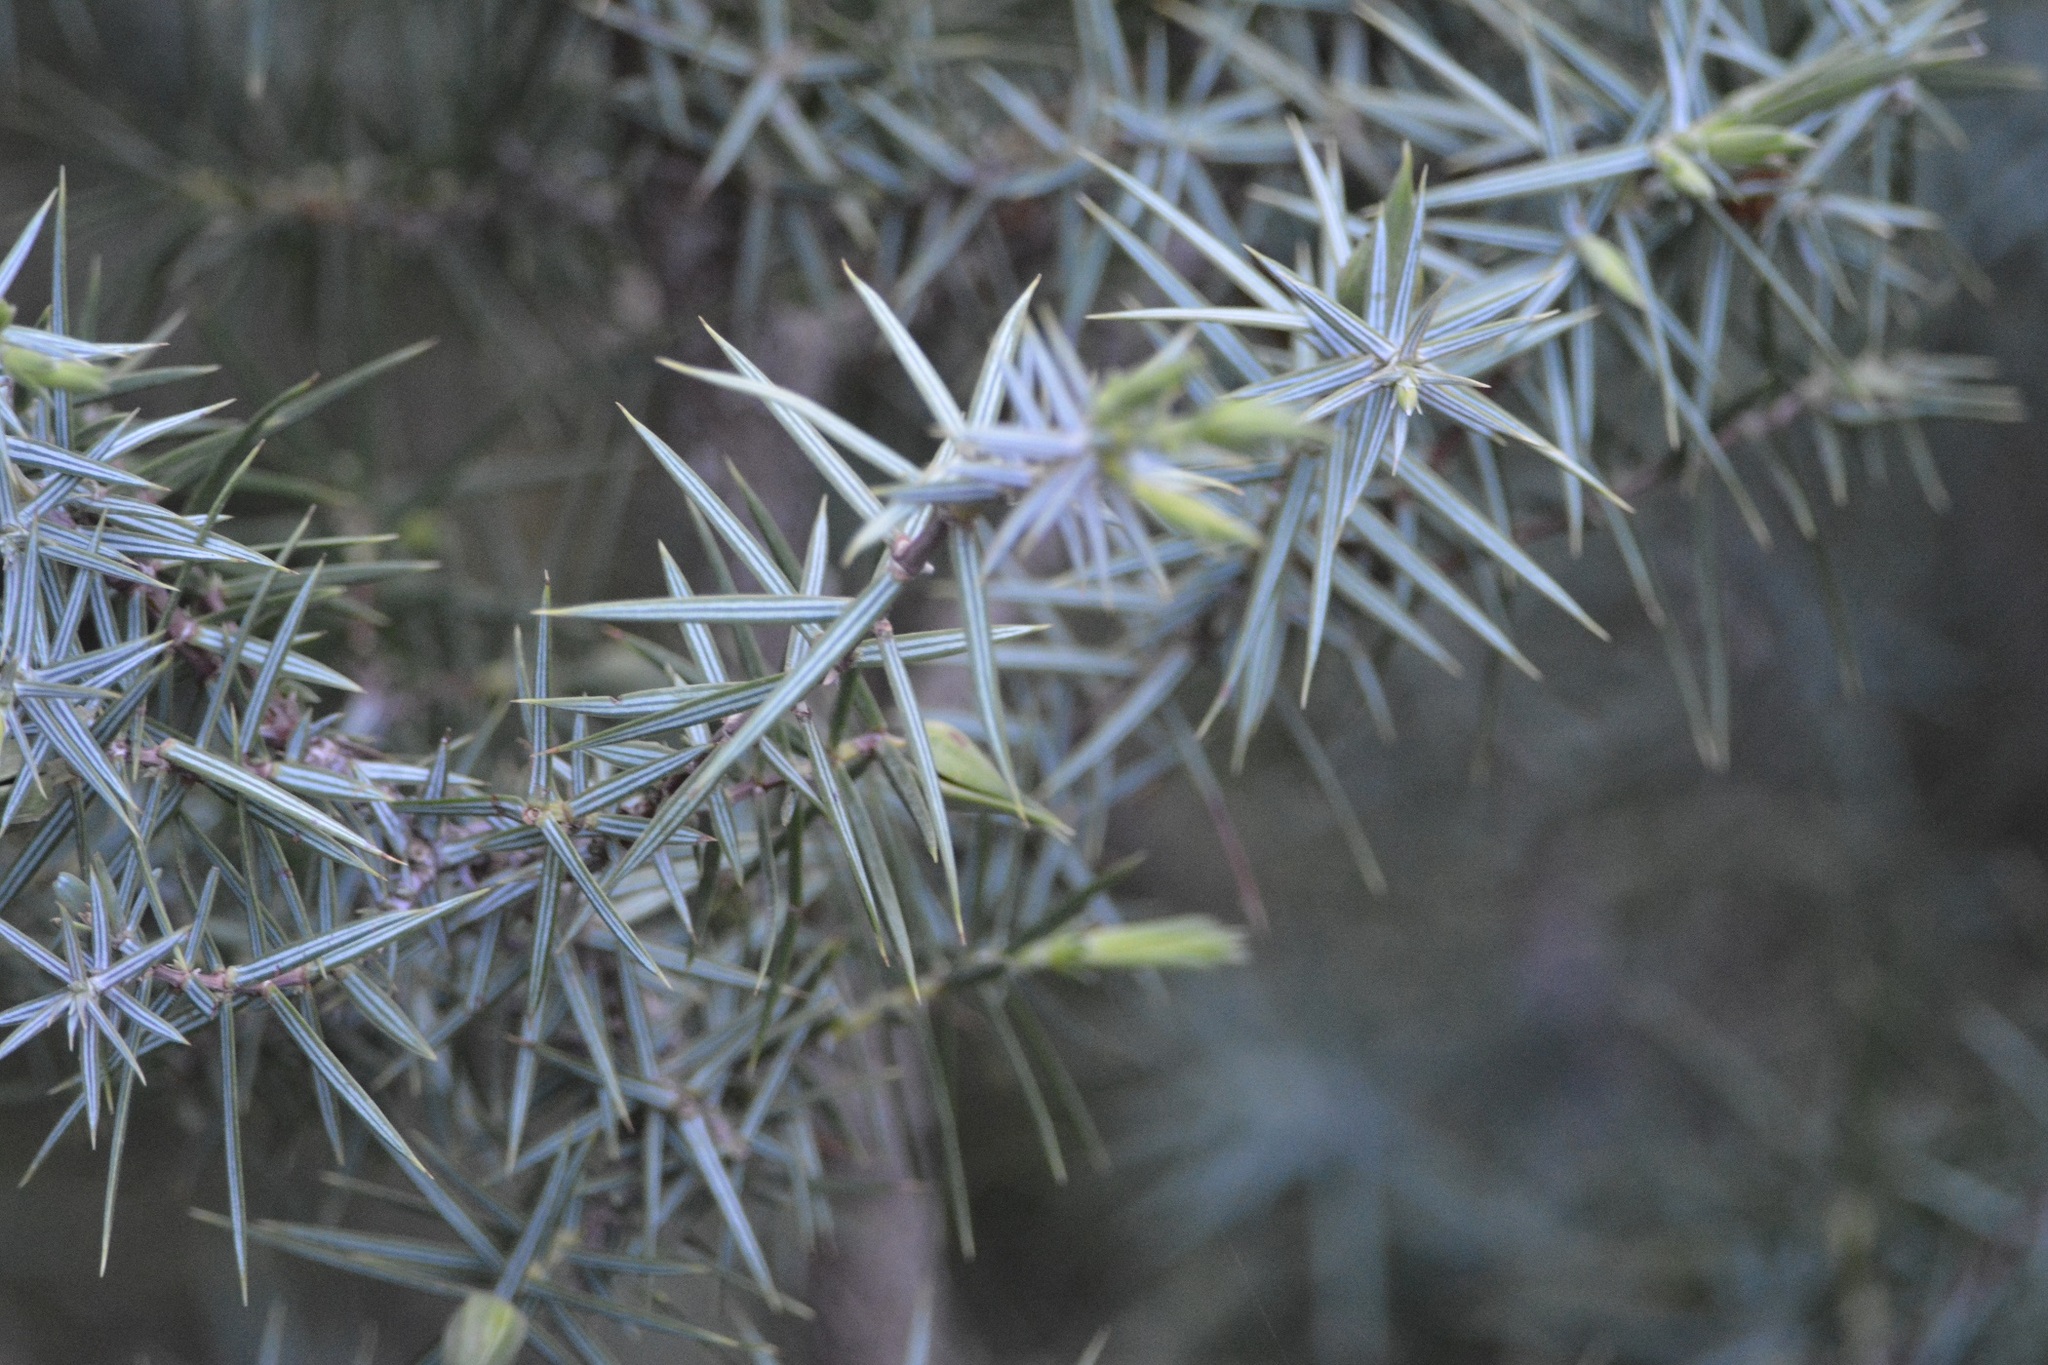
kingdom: Plantae
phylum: Tracheophyta
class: Pinopsida
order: Pinales
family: Cupressaceae
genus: Juniperus
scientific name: Juniperus oxycedrus
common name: Prickly juniper
